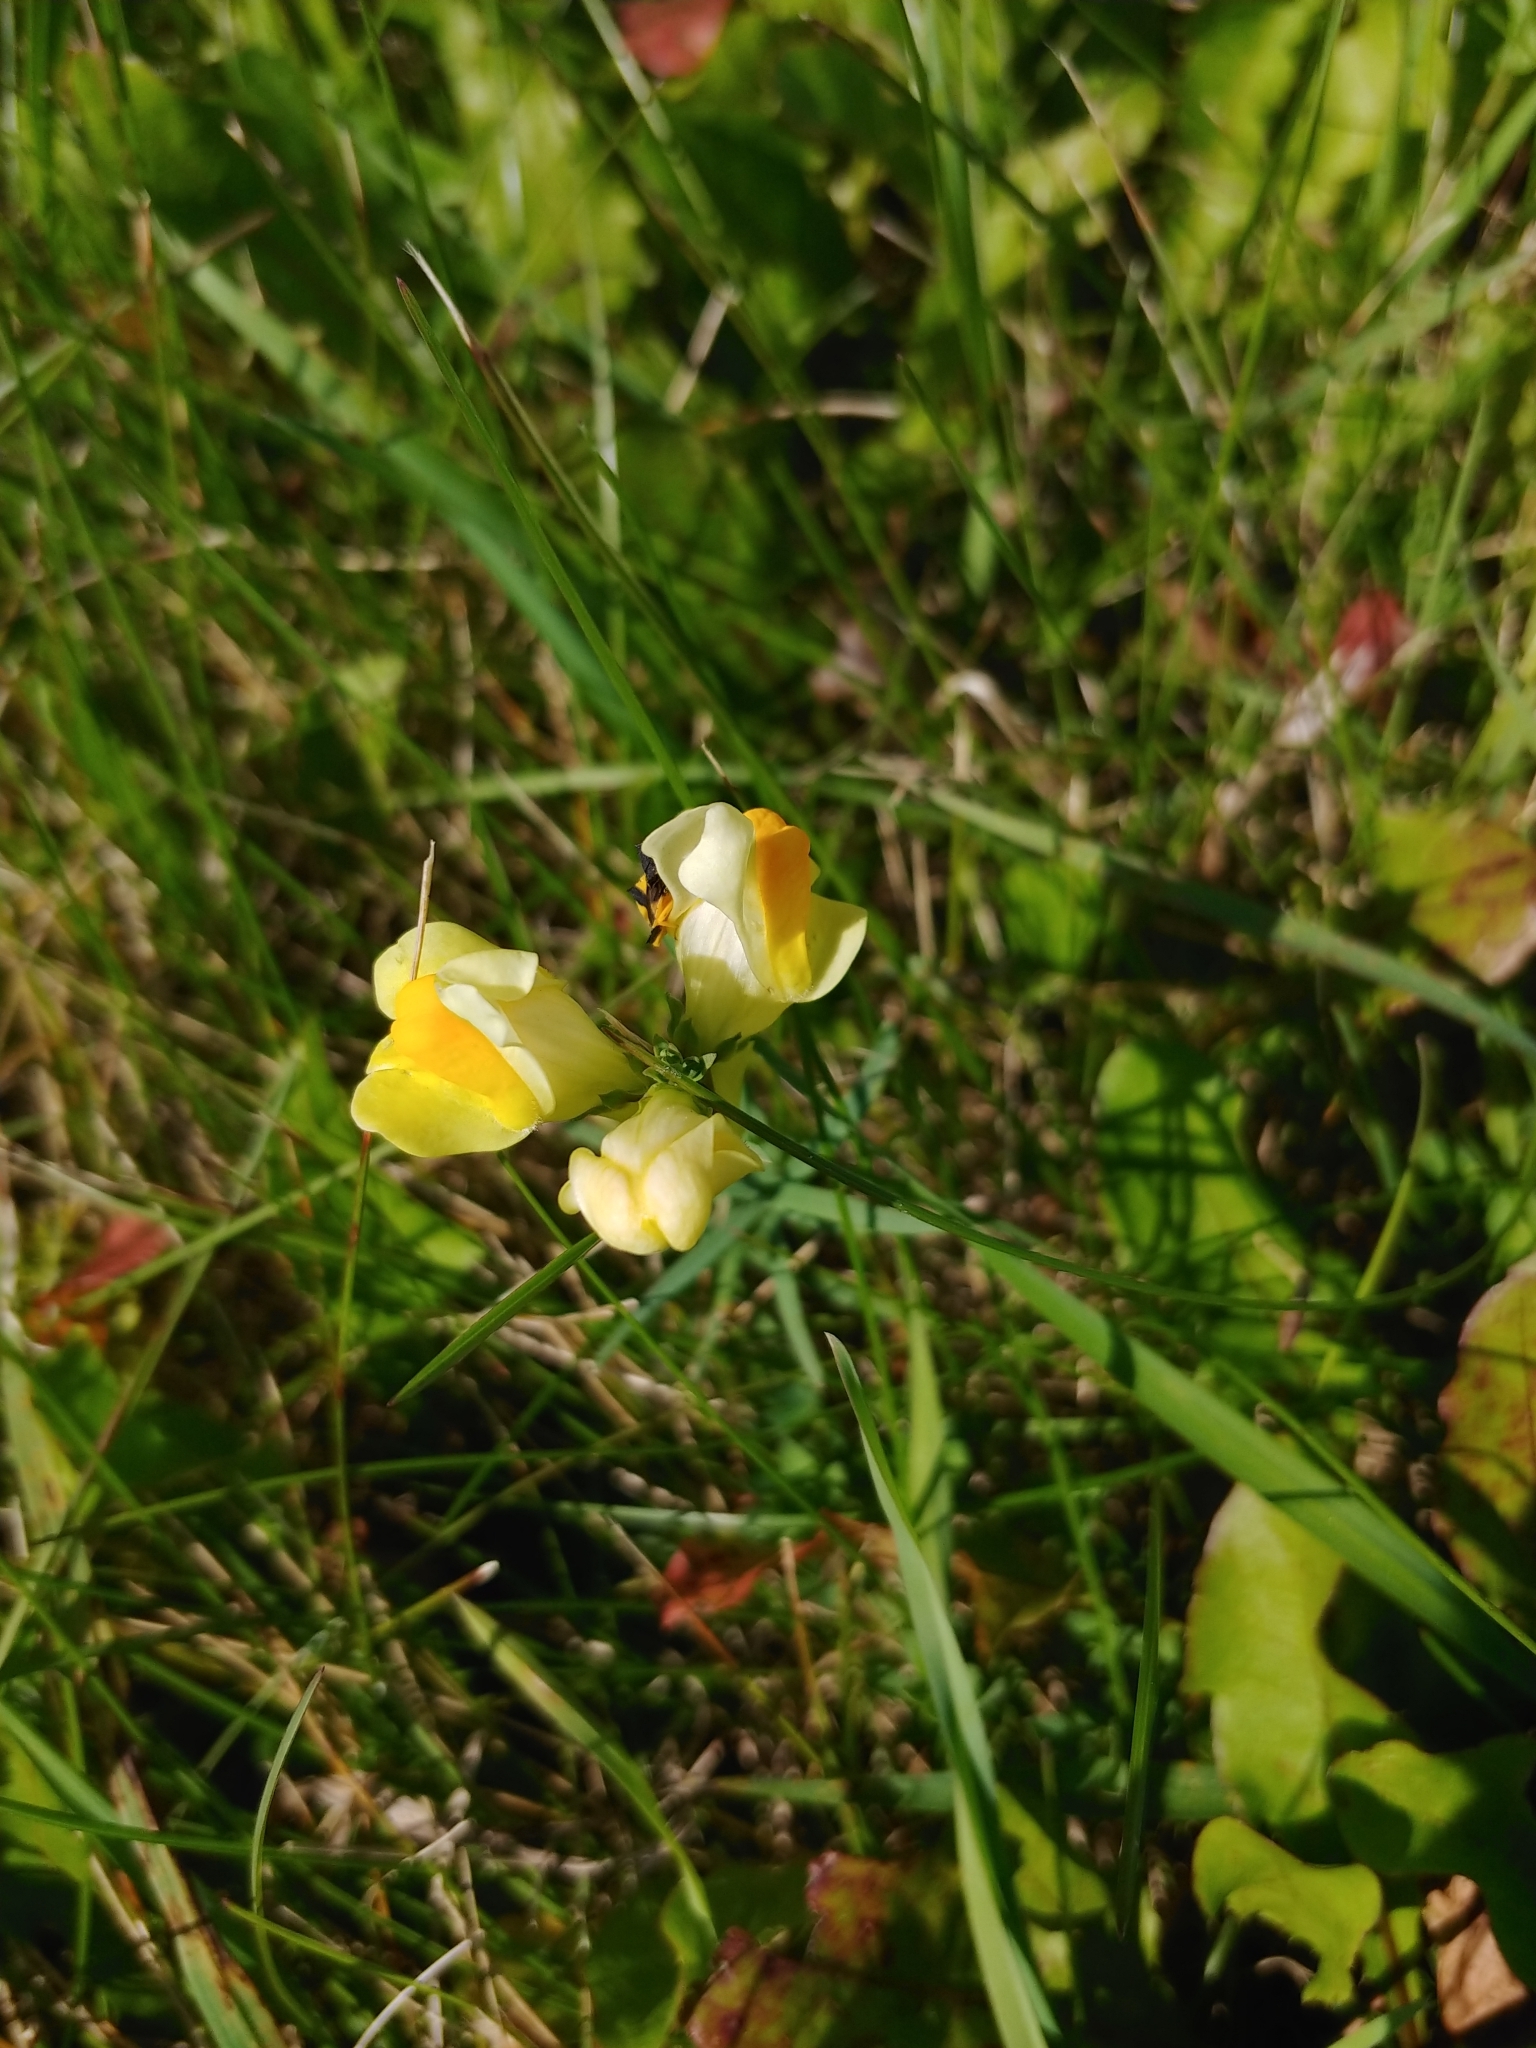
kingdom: Plantae
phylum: Tracheophyta
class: Magnoliopsida
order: Lamiales
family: Plantaginaceae
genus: Linaria
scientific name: Linaria vulgaris
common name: Butter and eggs
